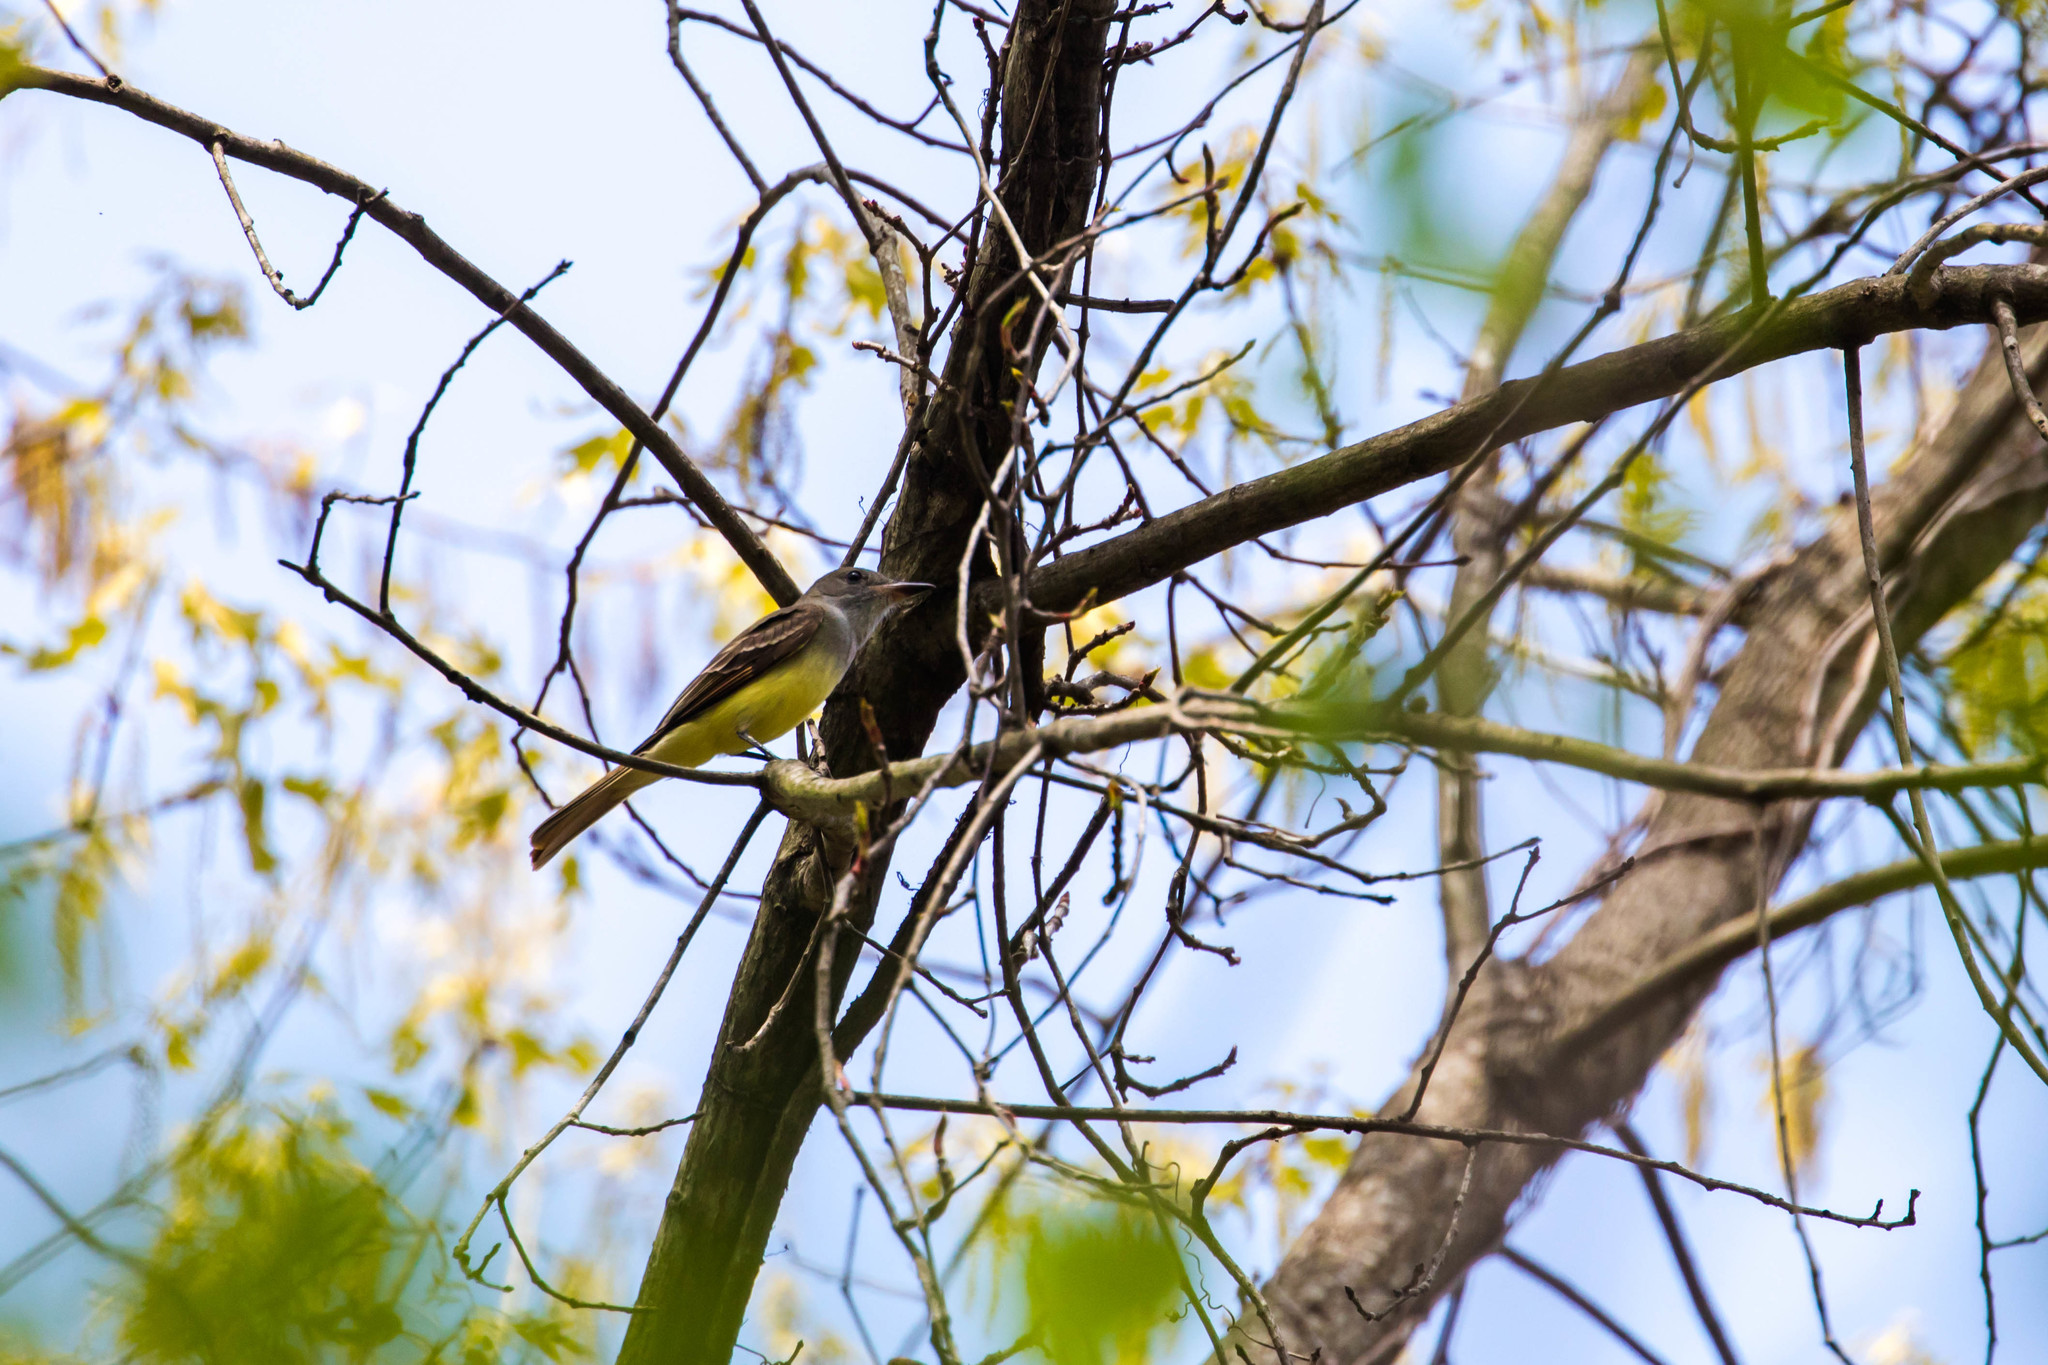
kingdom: Animalia
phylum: Chordata
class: Aves
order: Passeriformes
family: Tyrannidae
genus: Myiarchus
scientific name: Myiarchus crinitus
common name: Great crested flycatcher
